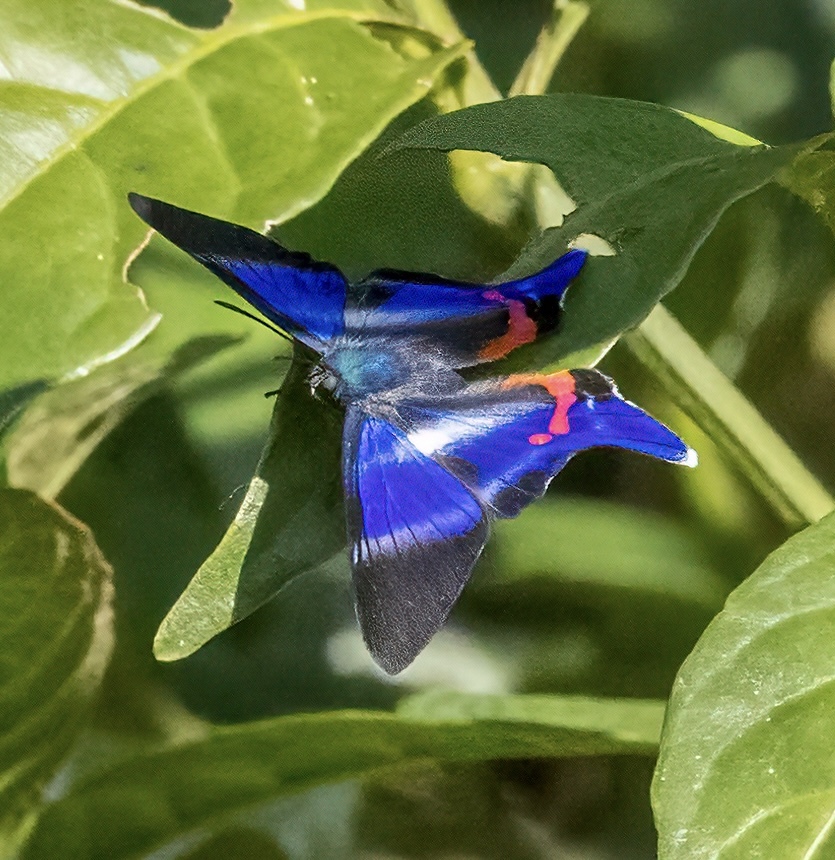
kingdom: Animalia
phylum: Arthropoda
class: Insecta
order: Lepidoptera
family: Riodinidae
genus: Rhetus
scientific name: Rhetus dysonii
